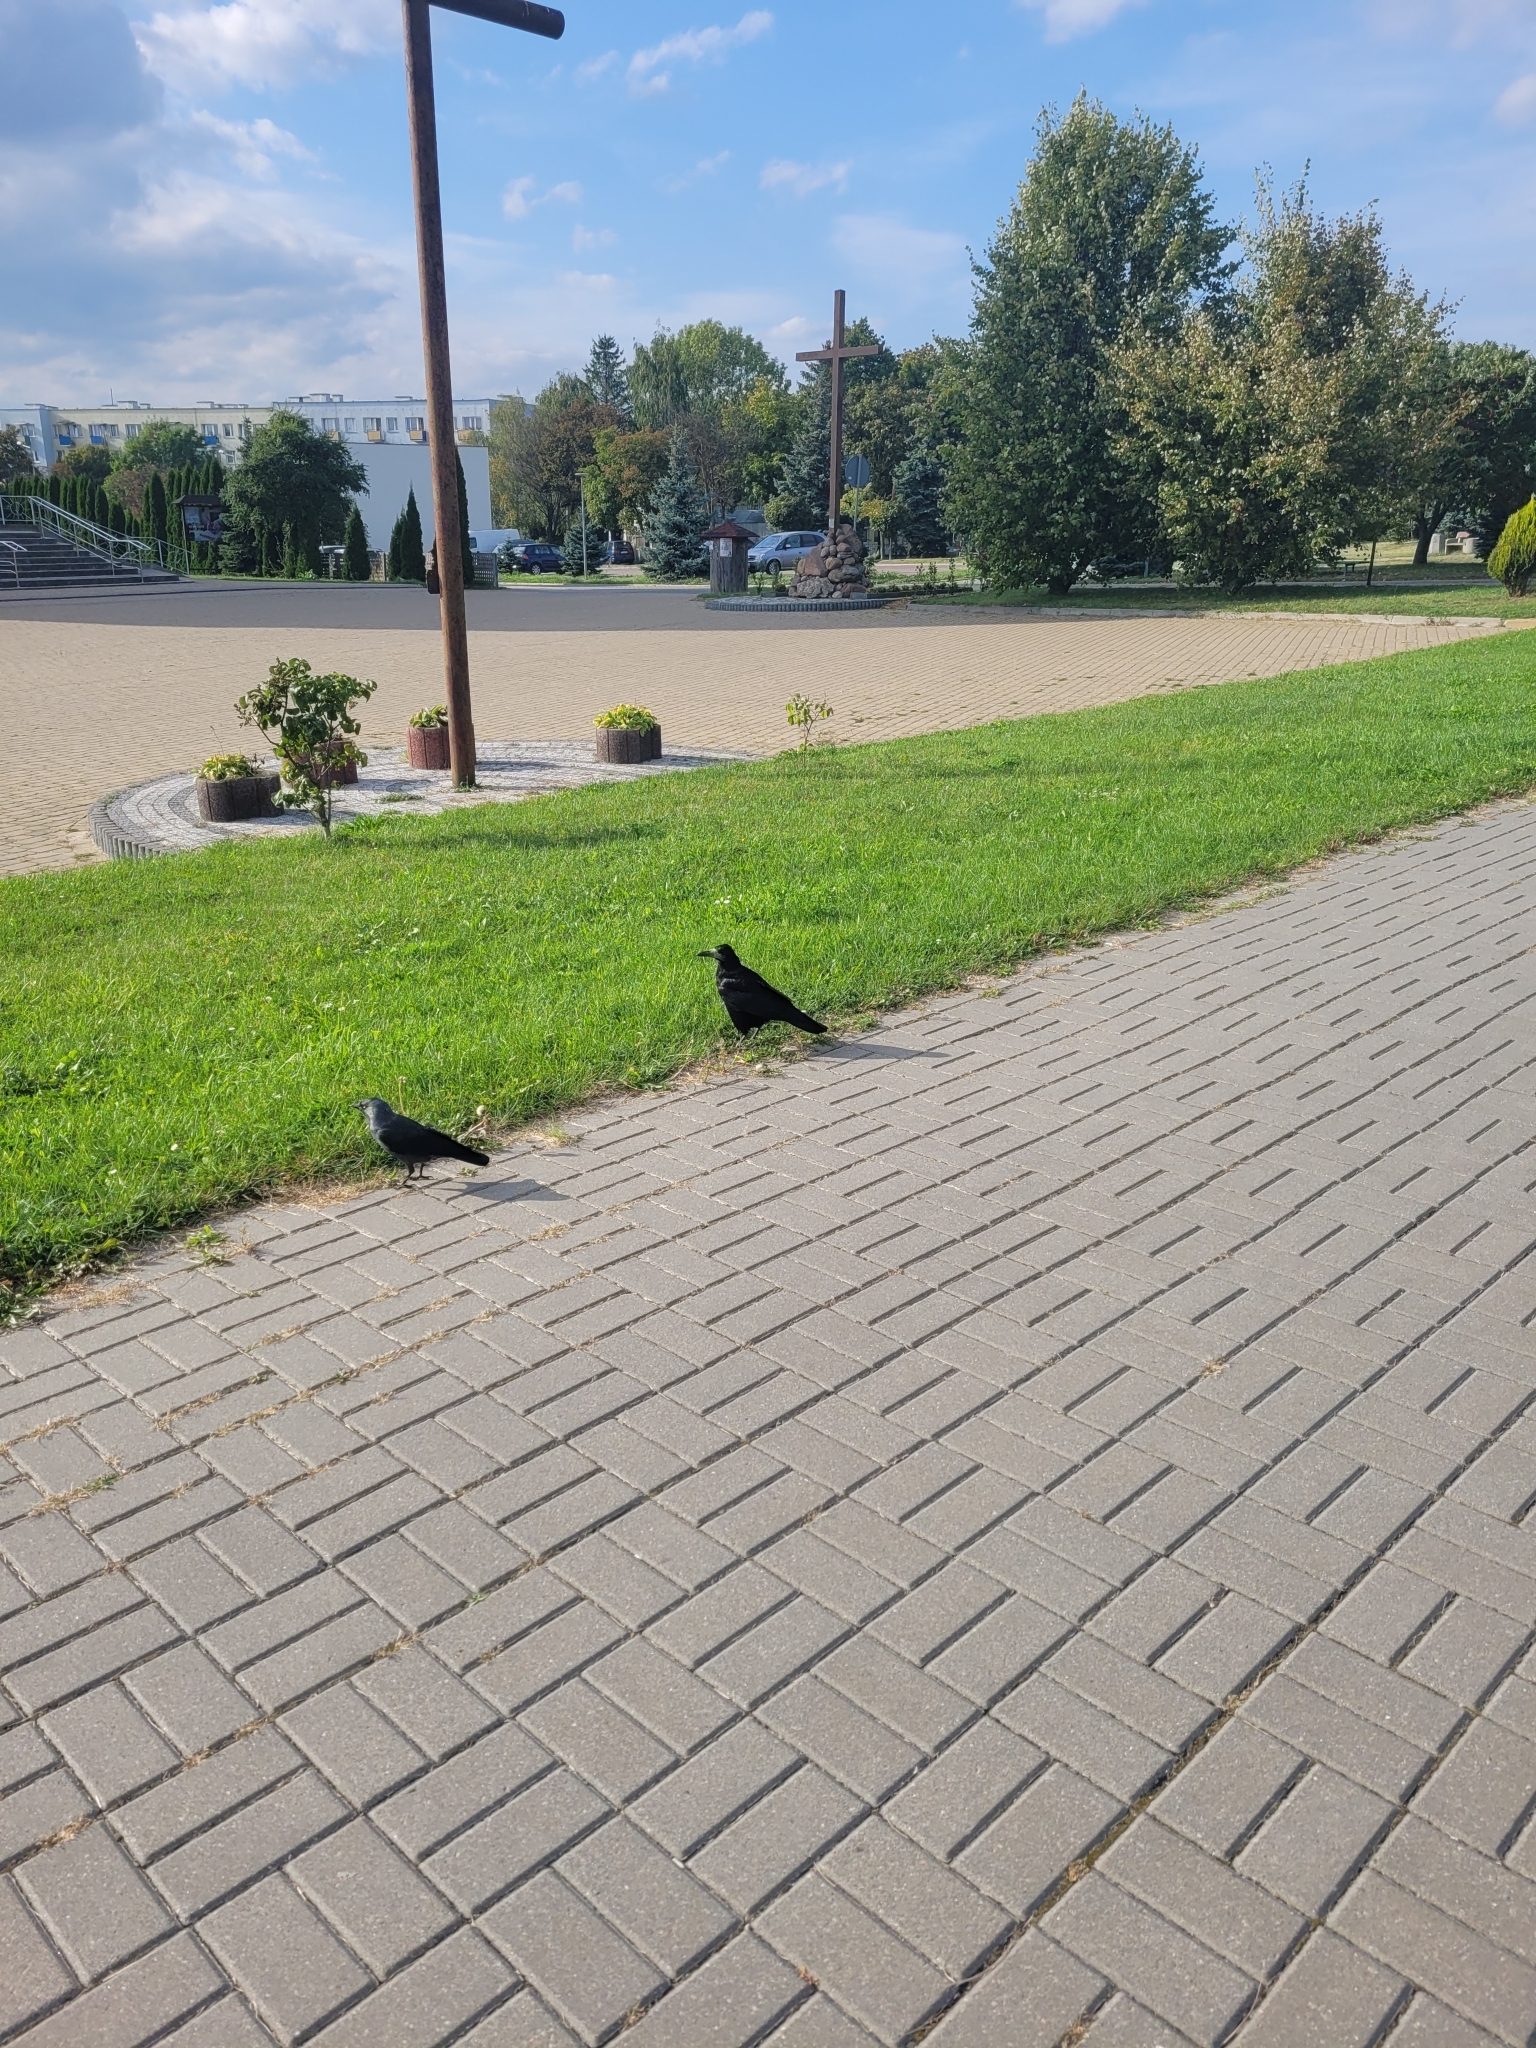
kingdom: Animalia
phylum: Chordata
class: Aves
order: Passeriformes
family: Corvidae
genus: Corvus
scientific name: Corvus frugilegus
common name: Rook
